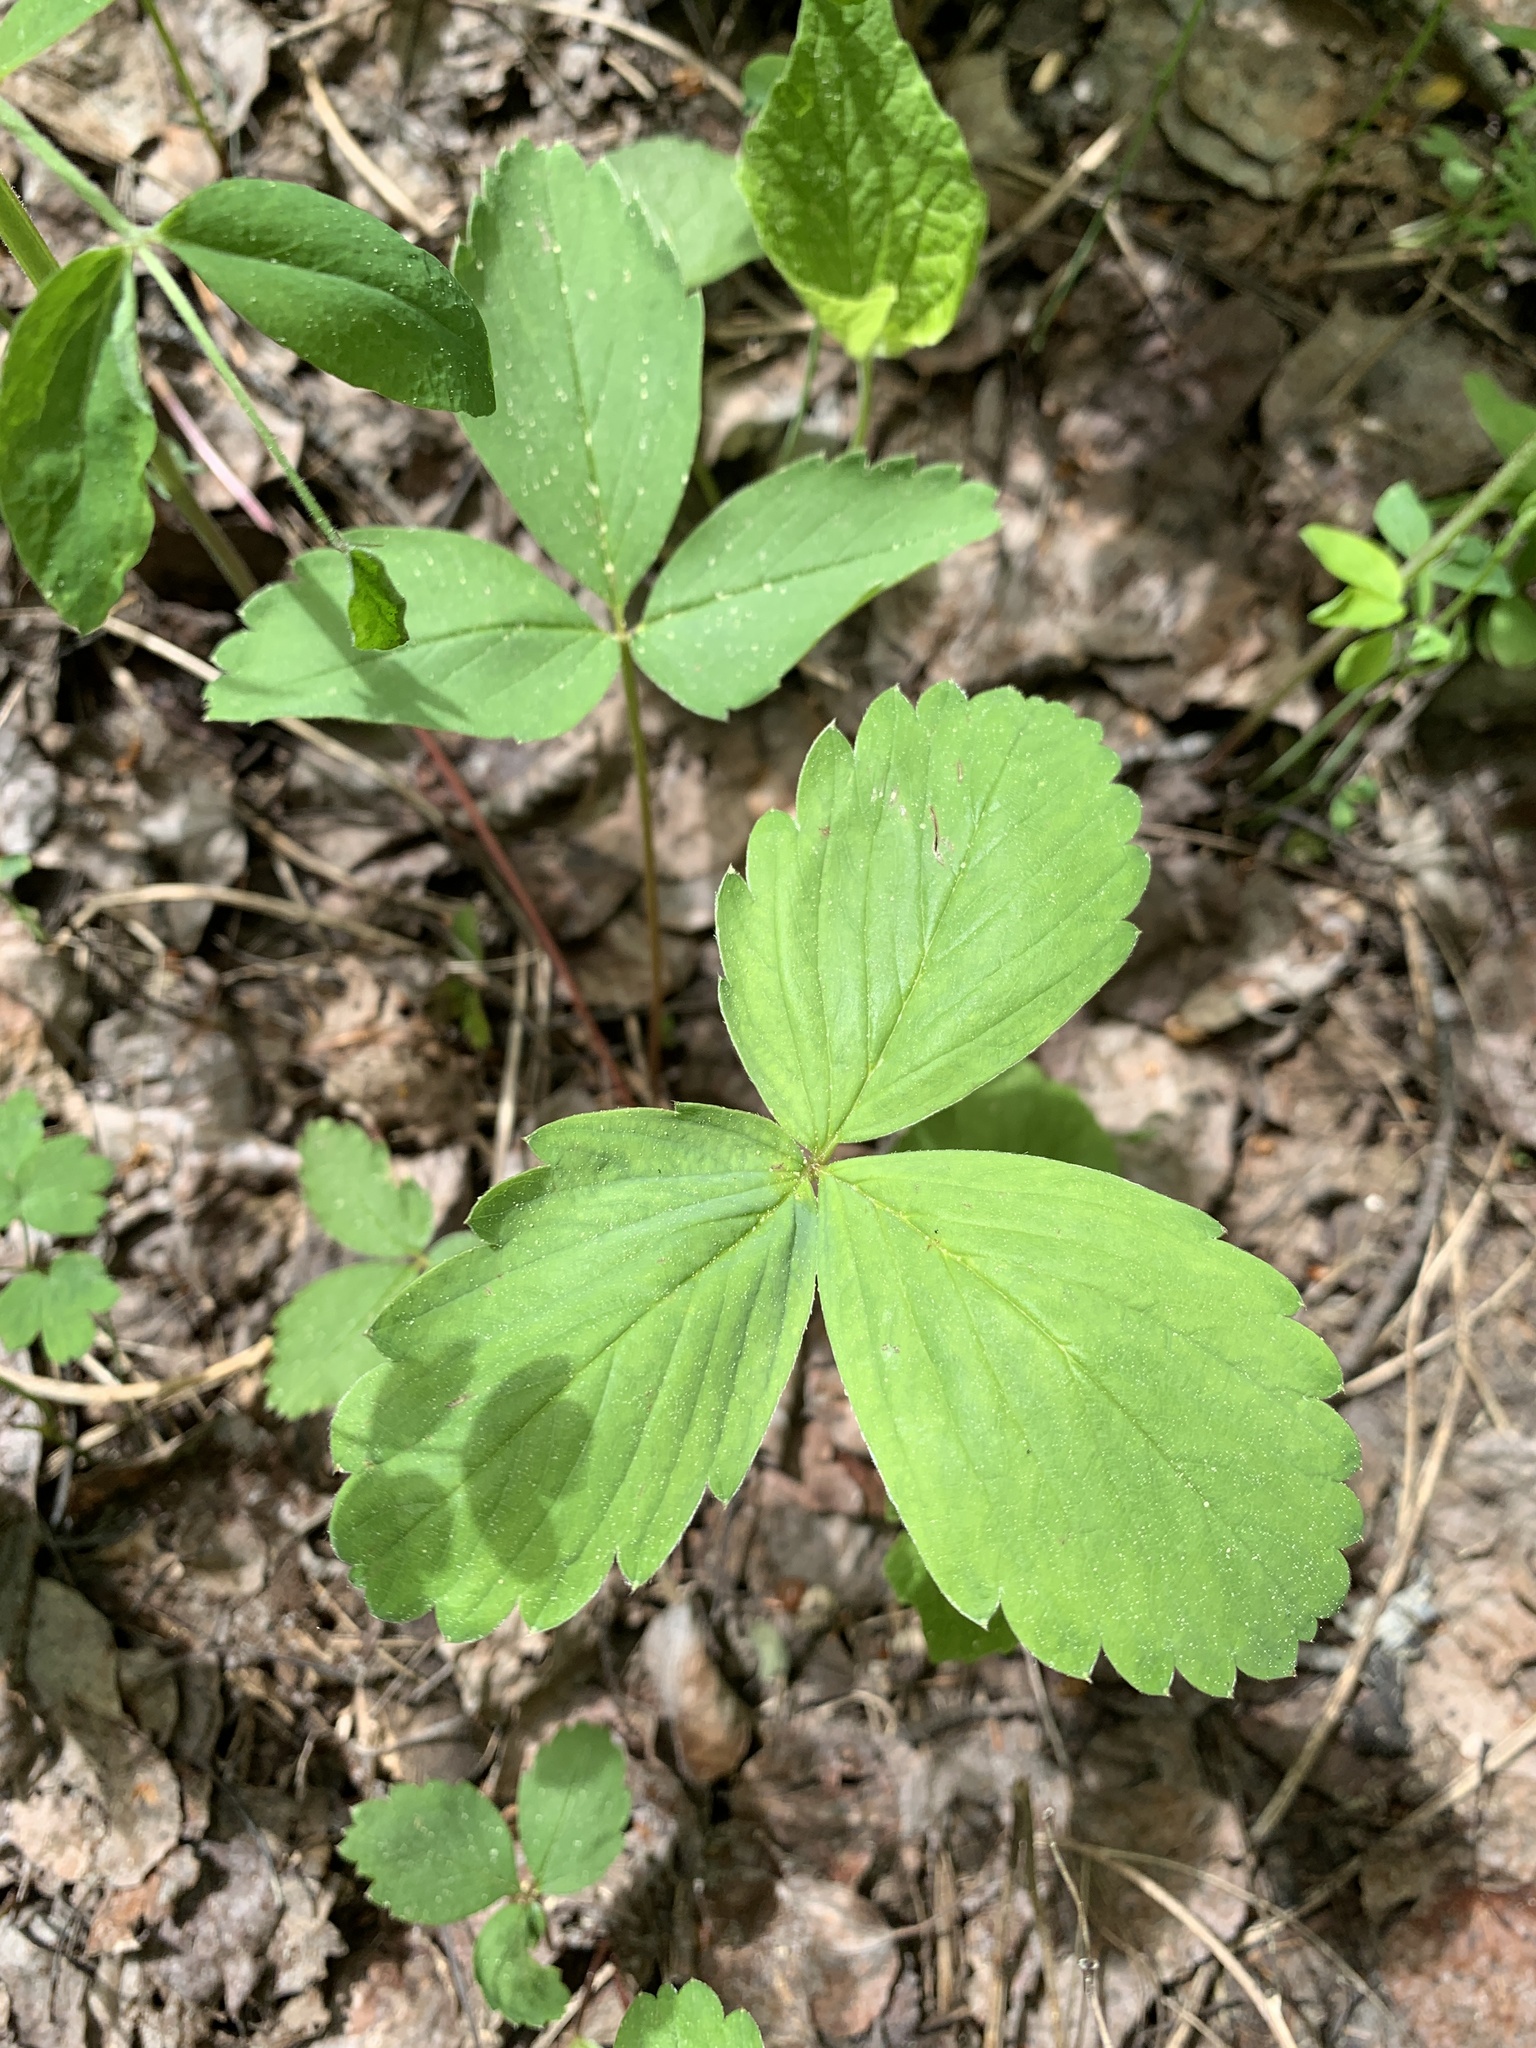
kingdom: Plantae
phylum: Tracheophyta
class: Magnoliopsida
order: Rosales
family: Rosaceae
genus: Fragaria
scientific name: Fragaria virginiana
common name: Thickleaved wild strawberry
